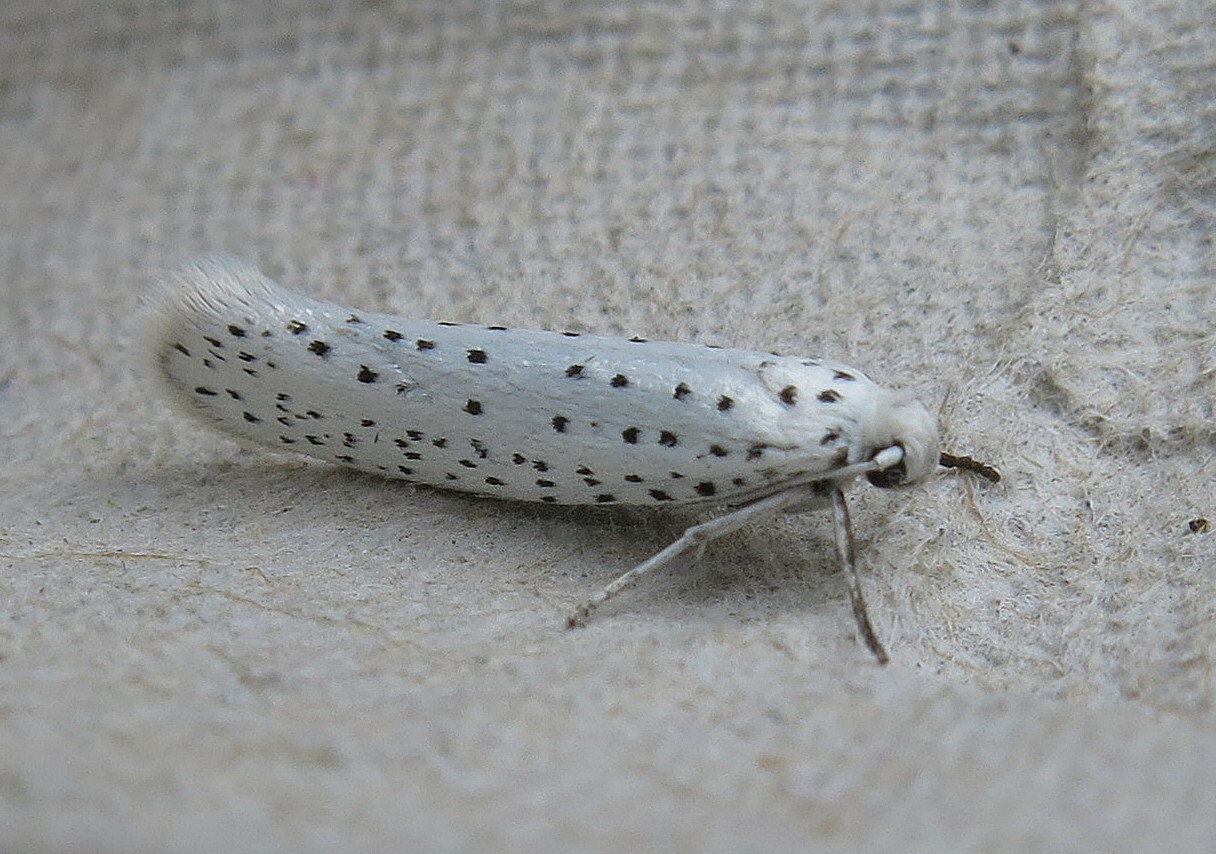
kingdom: Animalia
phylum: Arthropoda
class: Insecta
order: Lepidoptera
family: Yponomeutidae
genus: Yponomeuta
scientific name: Yponomeuta evonymella
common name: Bird-cherry ermine
